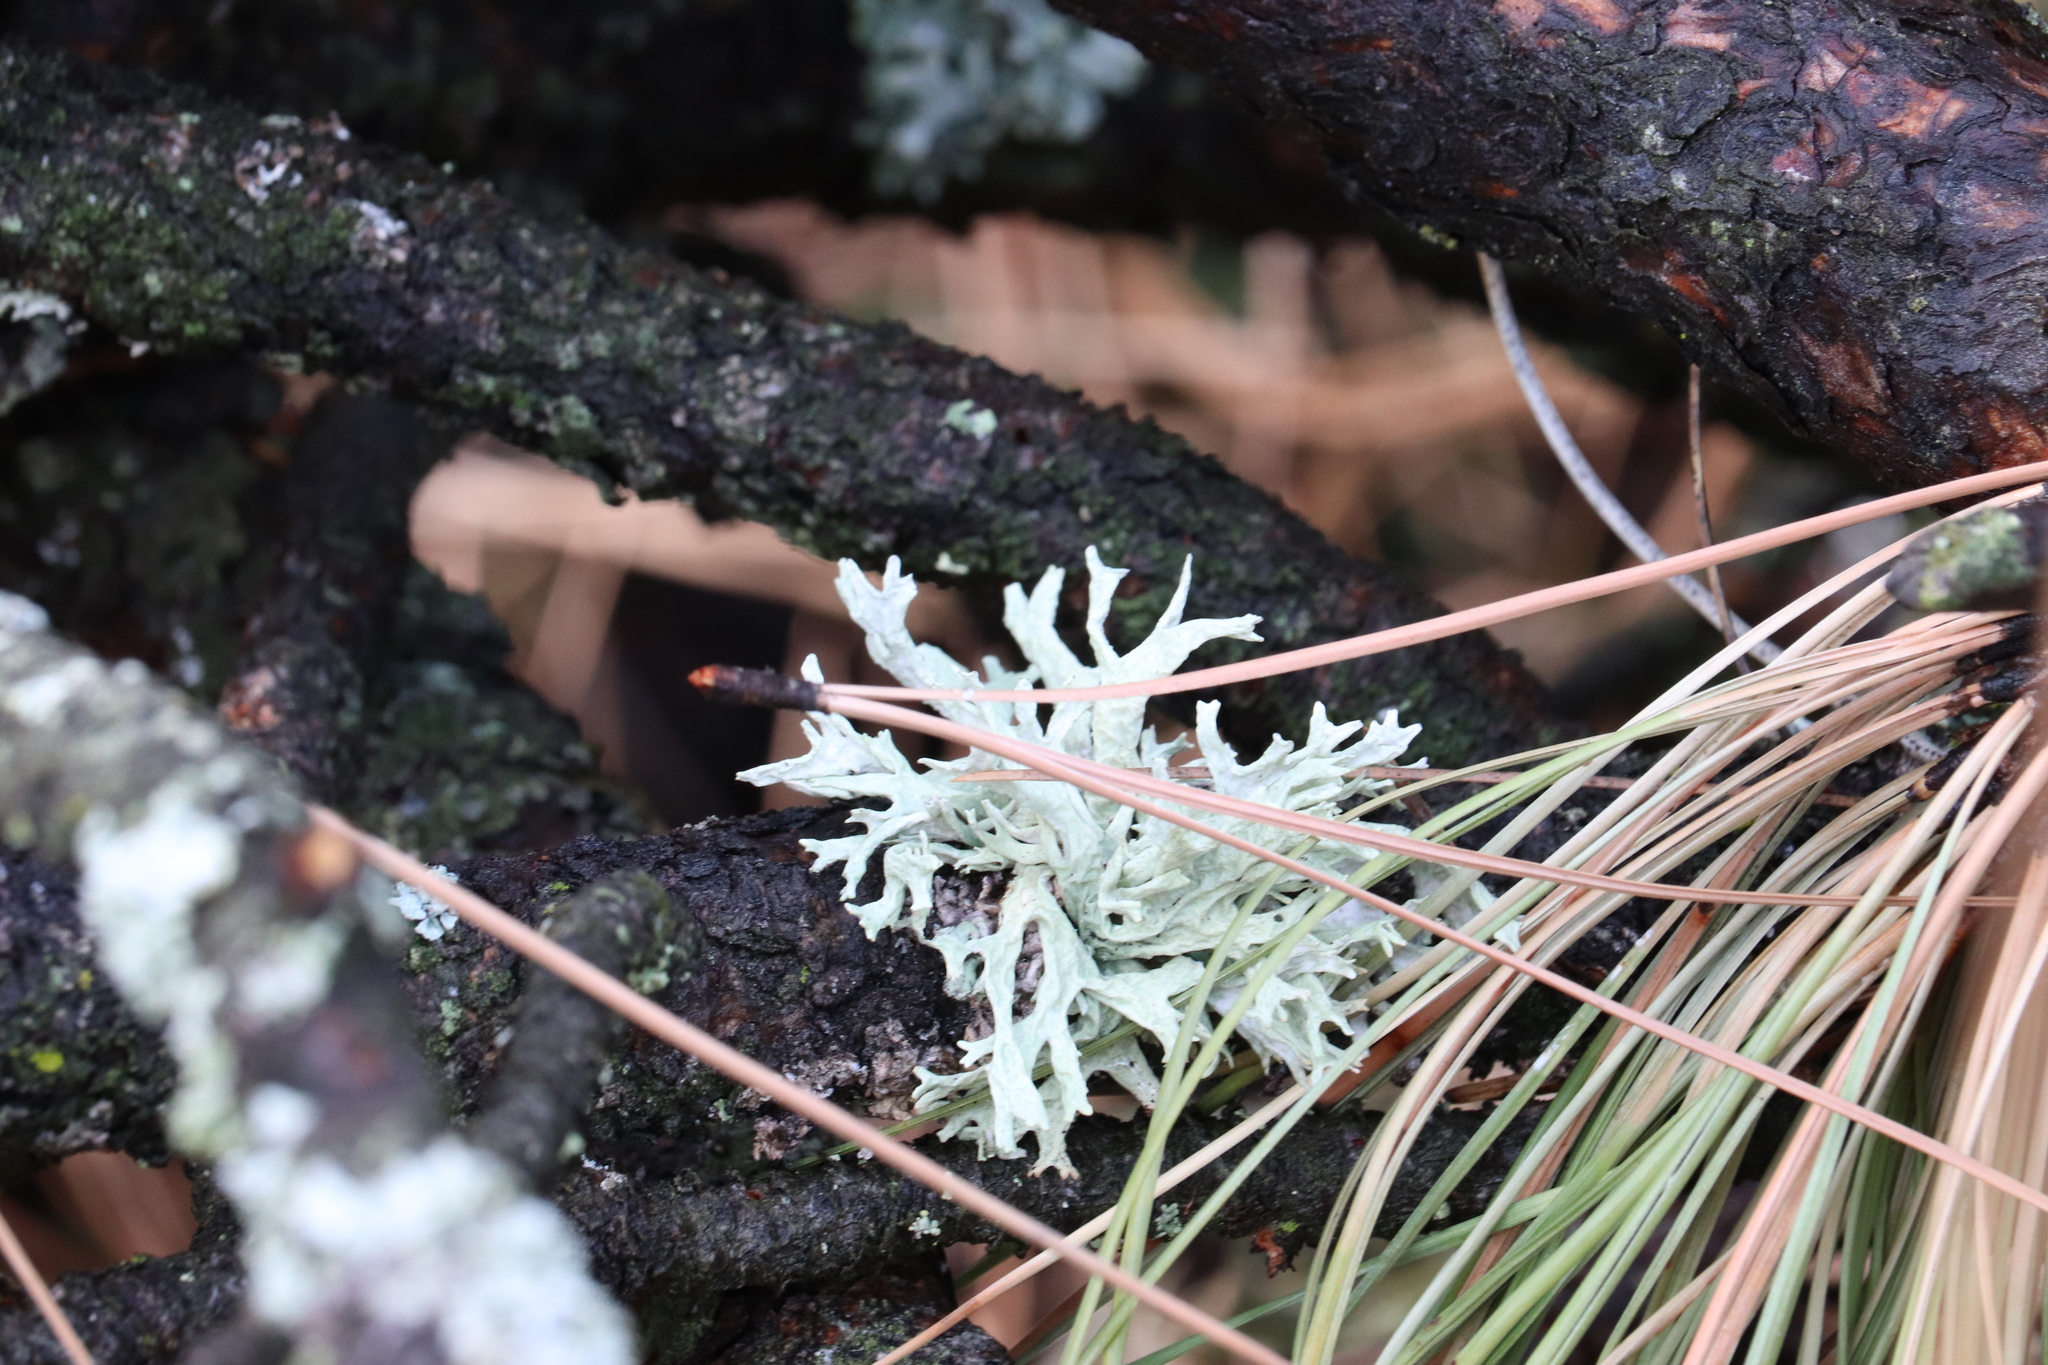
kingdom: Fungi
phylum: Ascomycota
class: Lecanoromycetes
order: Lecanorales
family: Parmeliaceae
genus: Evernia
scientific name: Evernia prunastri
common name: Oak moss
